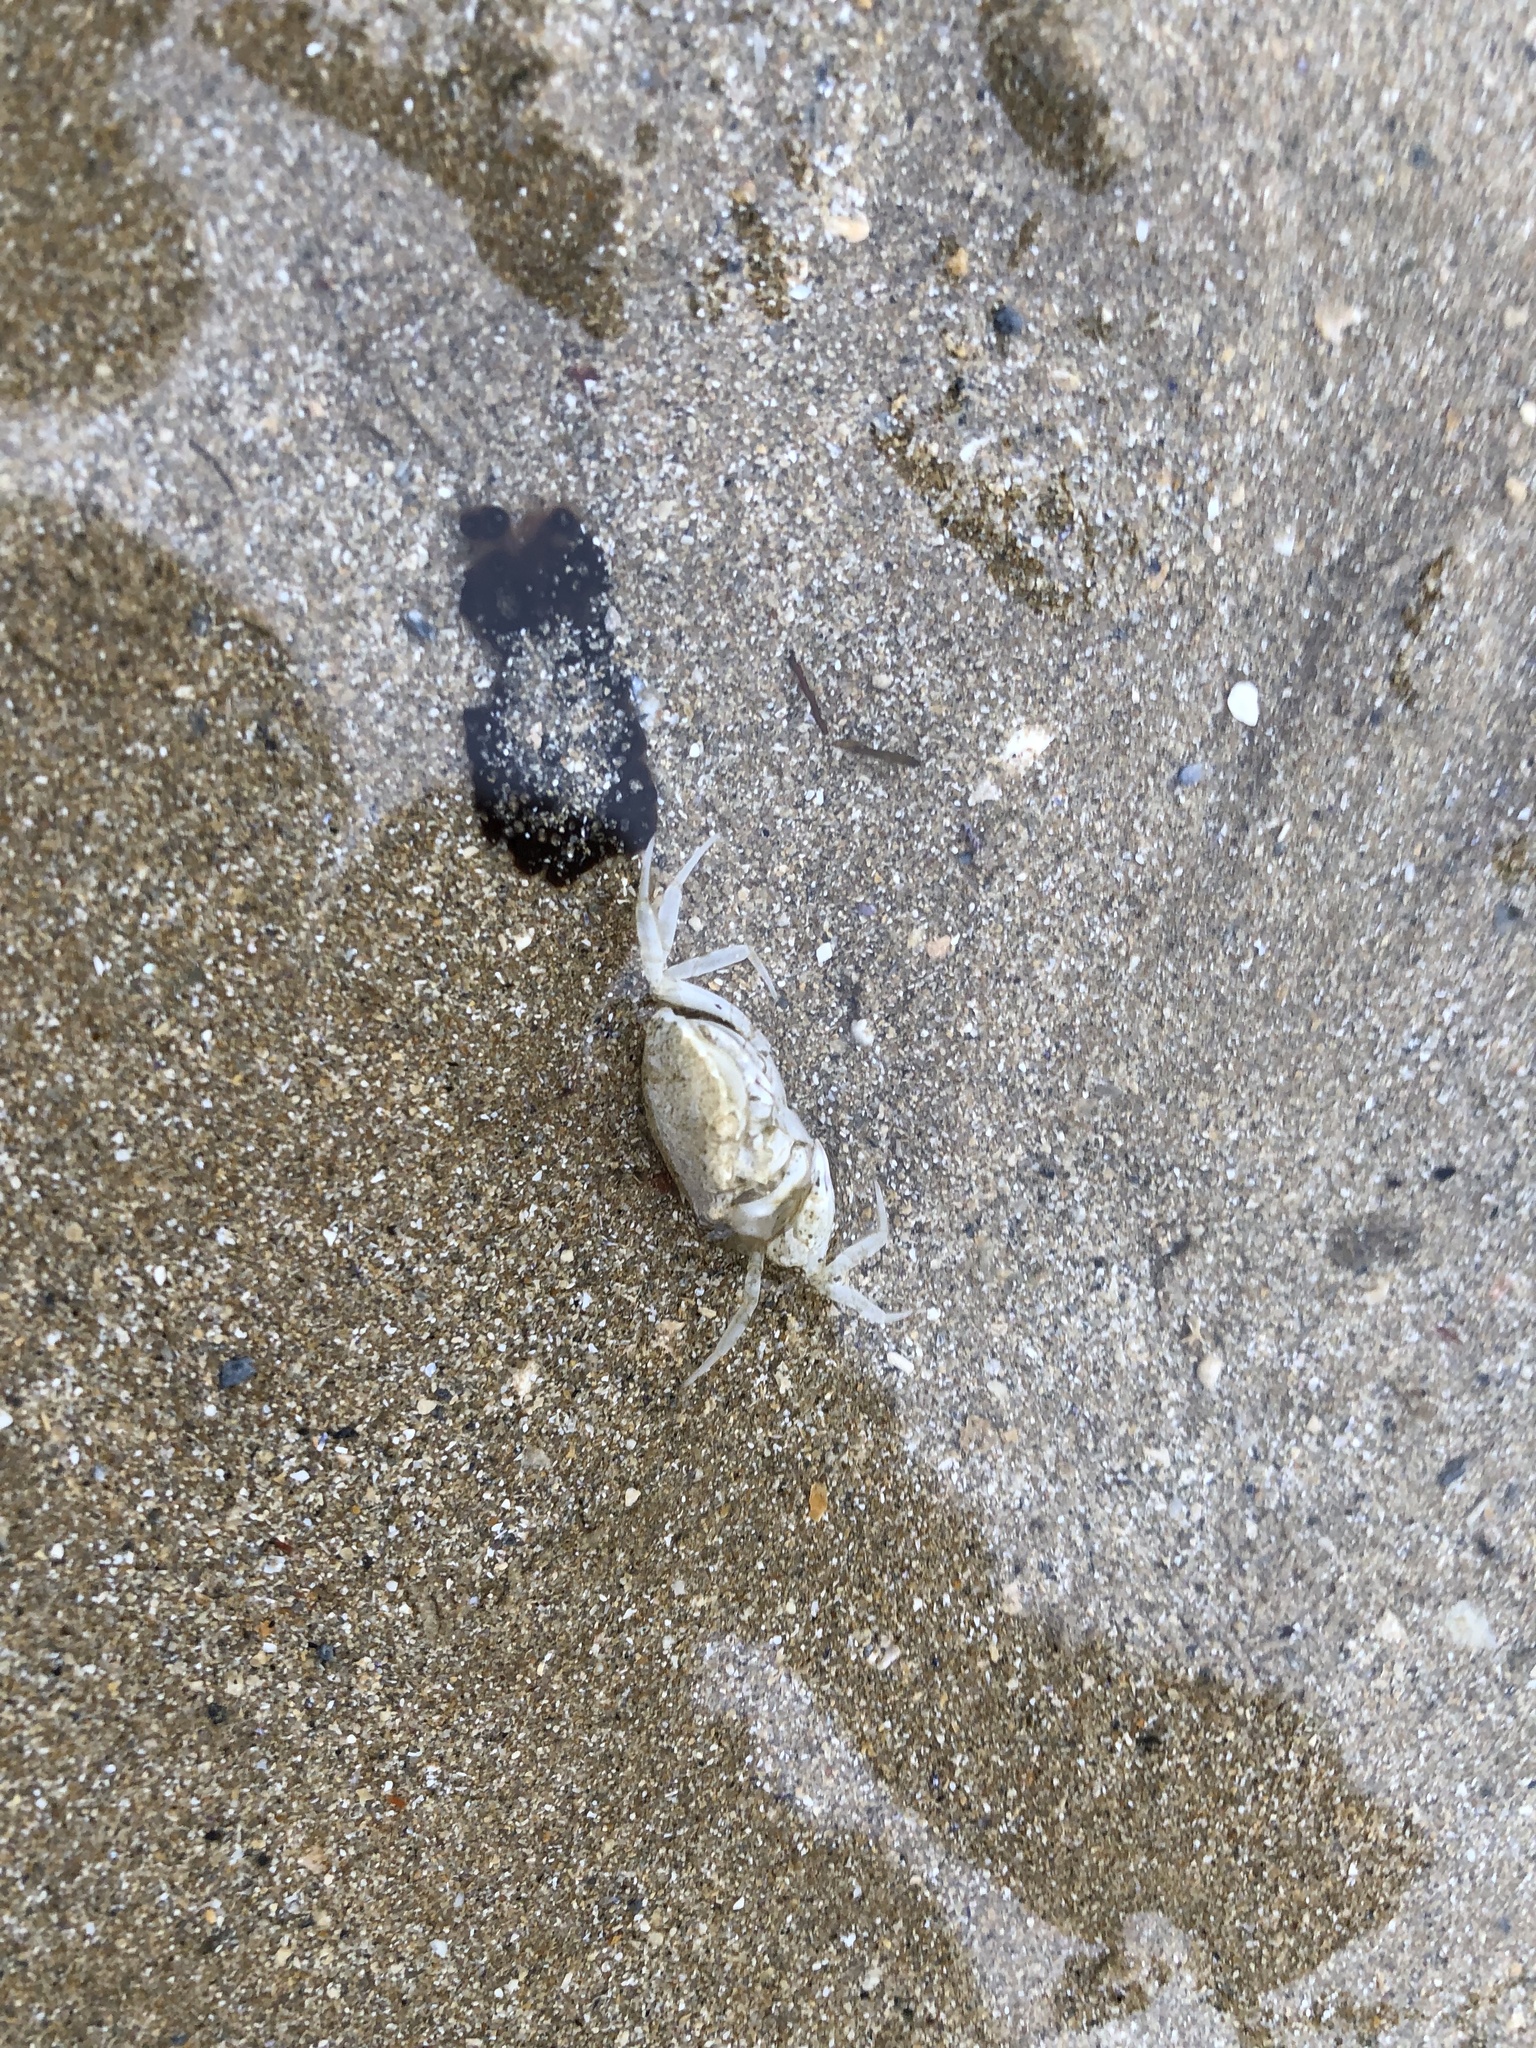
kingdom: Animalia
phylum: Arthropoda
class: Malacostraca
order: Decapoda
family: Carcinidae
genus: Portumnus
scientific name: Portumnus latipes
